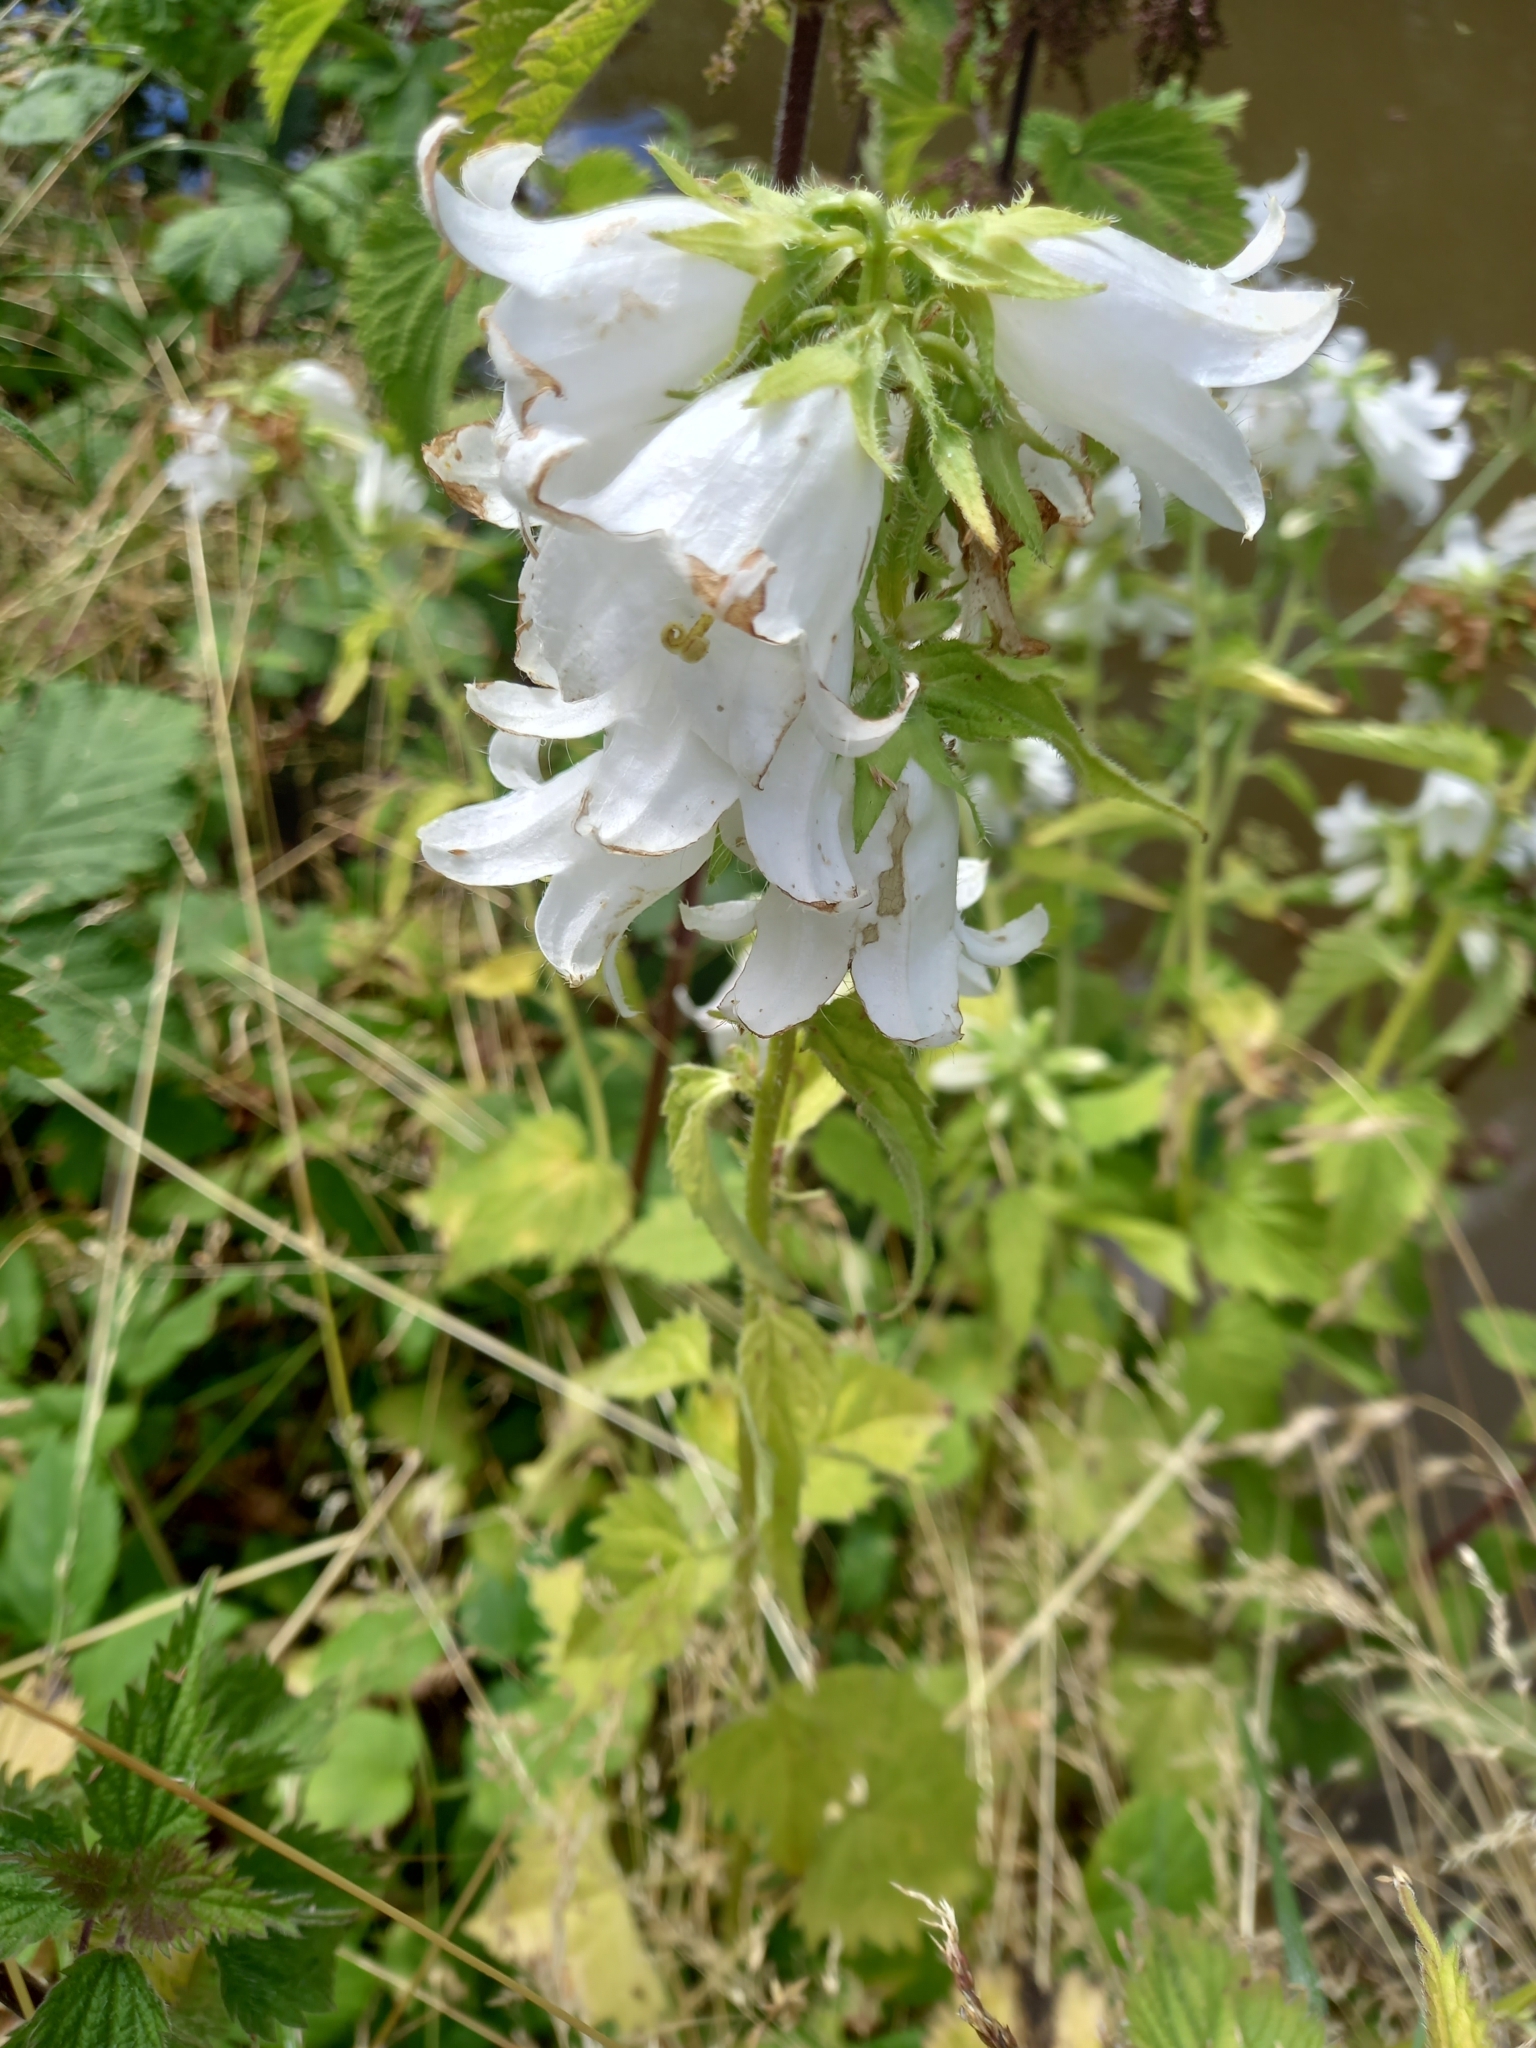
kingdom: Plantae
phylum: Tracheophyta
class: Magnoliopsida
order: Asterales
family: Campanulaceae
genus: Campanula
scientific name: Campanula trachelium
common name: Nettle-leaved bellflower
